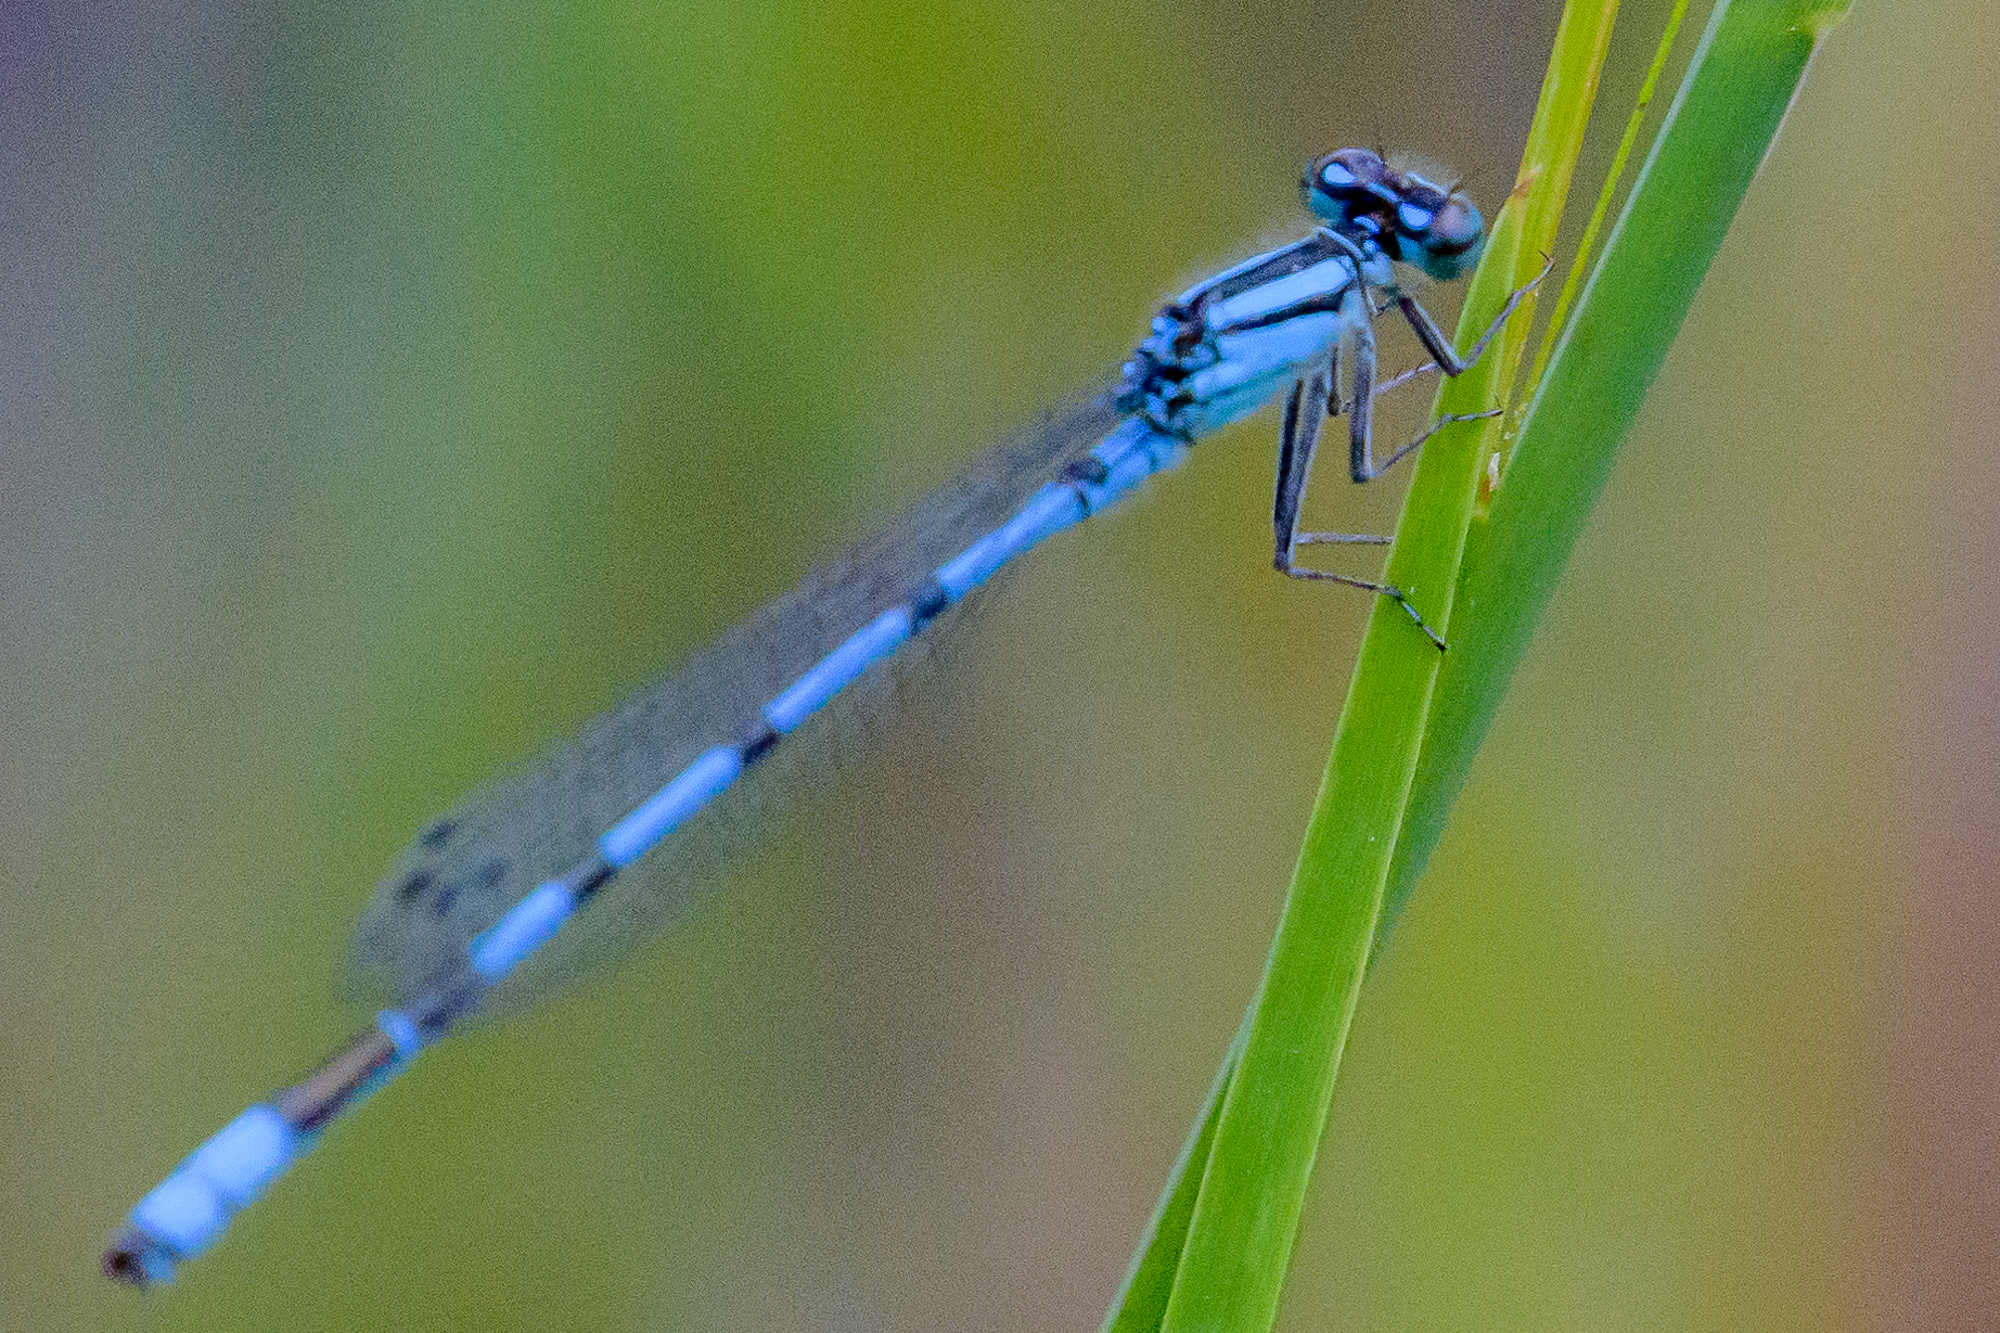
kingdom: Animalia
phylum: Arthropoda
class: Insecta
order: Odonata
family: Coenagrionidae
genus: Enallagma
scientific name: Enallagma ebrium
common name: Marsh bluet
